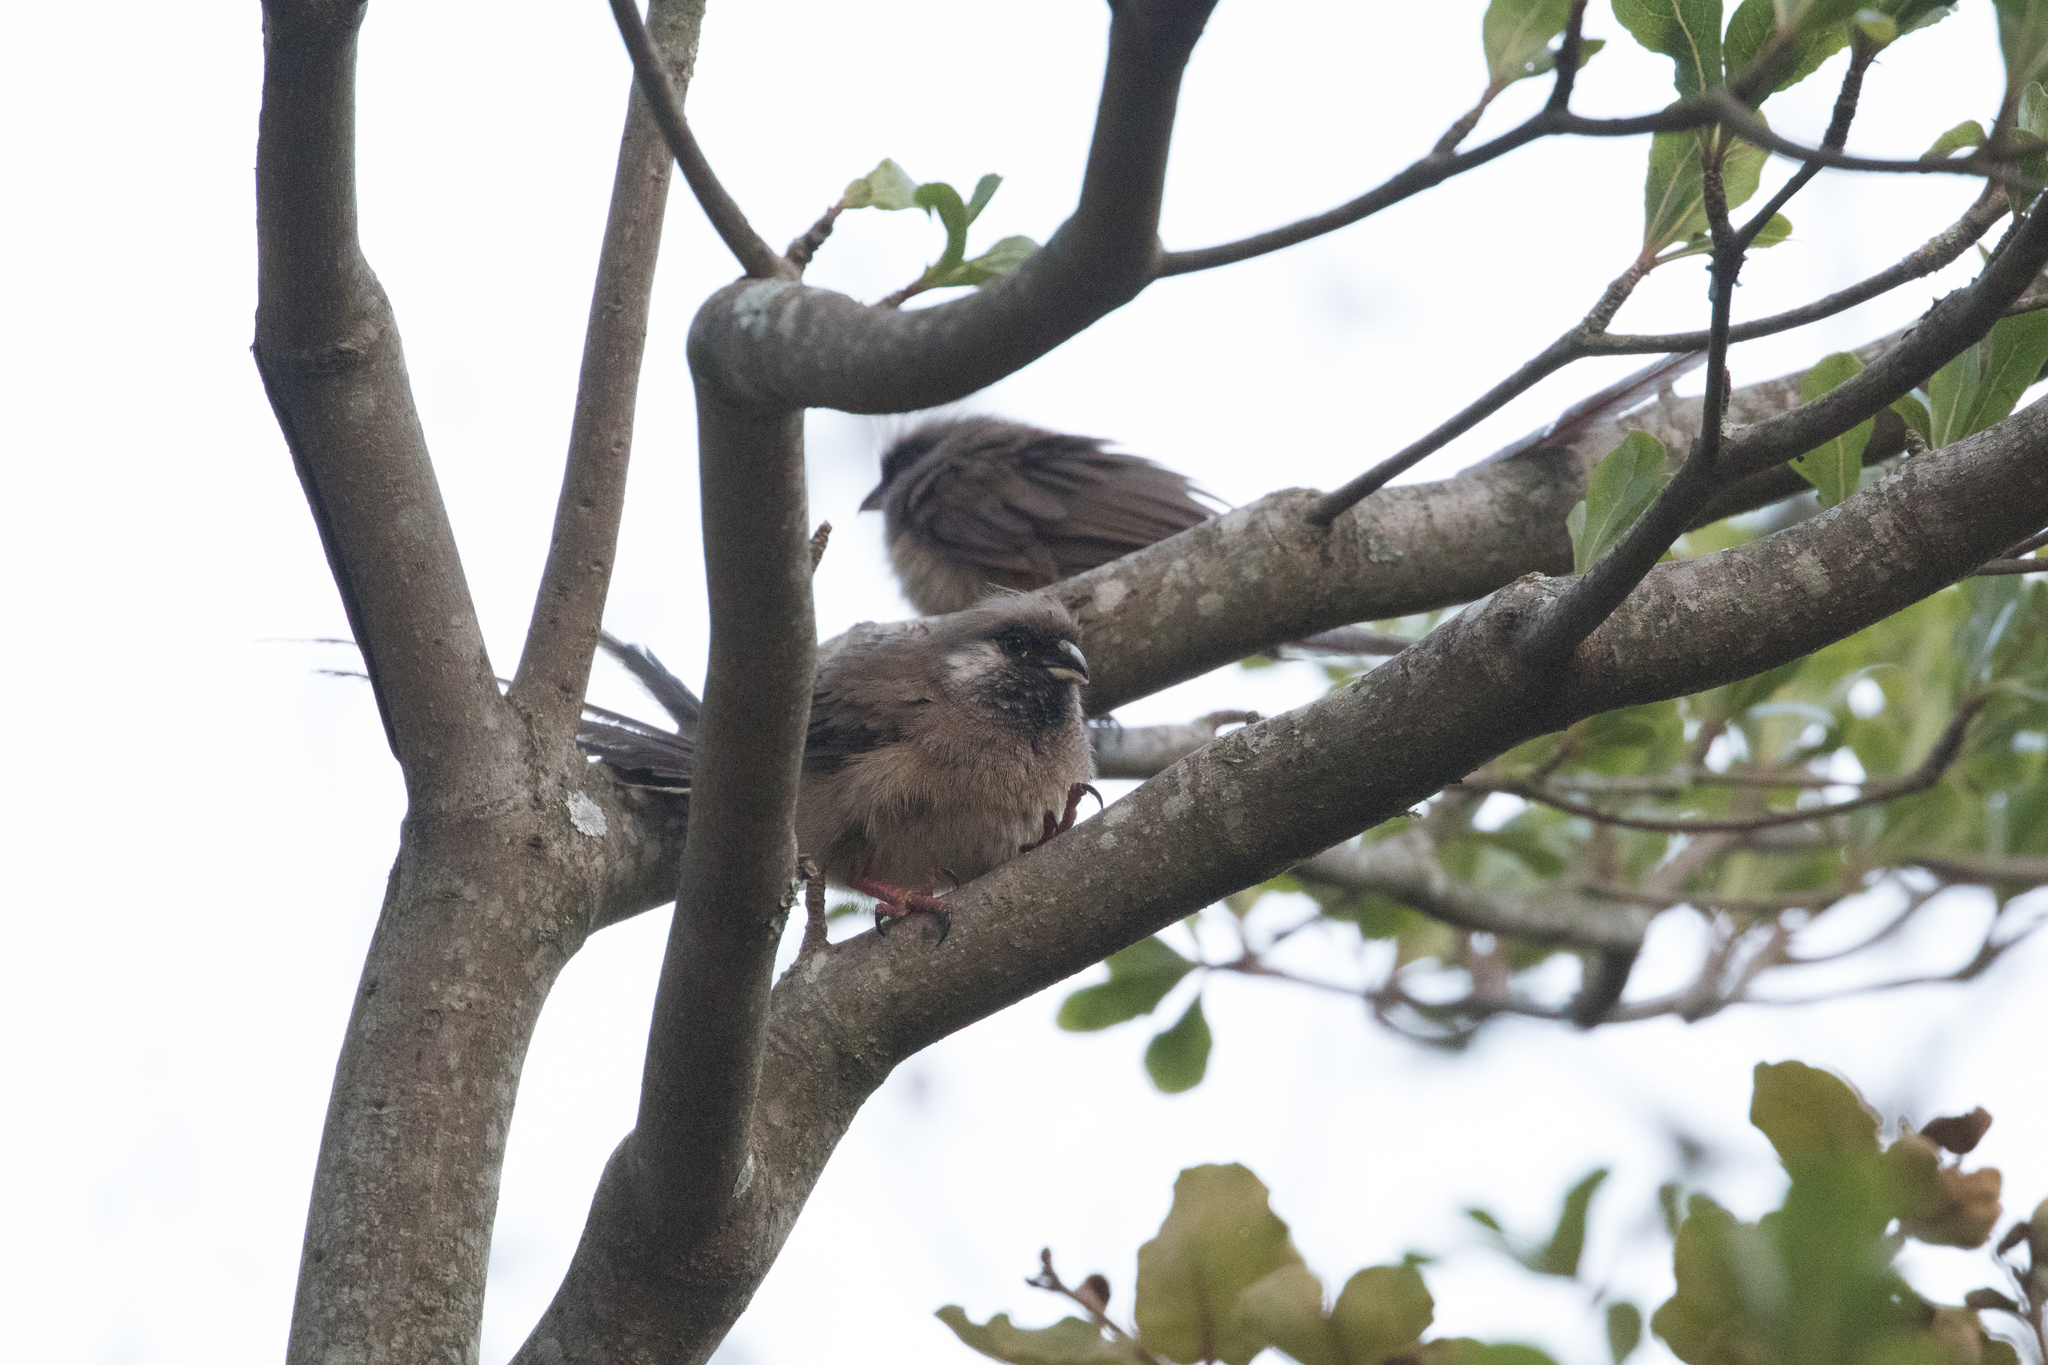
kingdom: Animalia
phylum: Chordata
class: Aves
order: Coliiformes
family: Coliidae
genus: Colius
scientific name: Colius striatus
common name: Speckled mousebird
